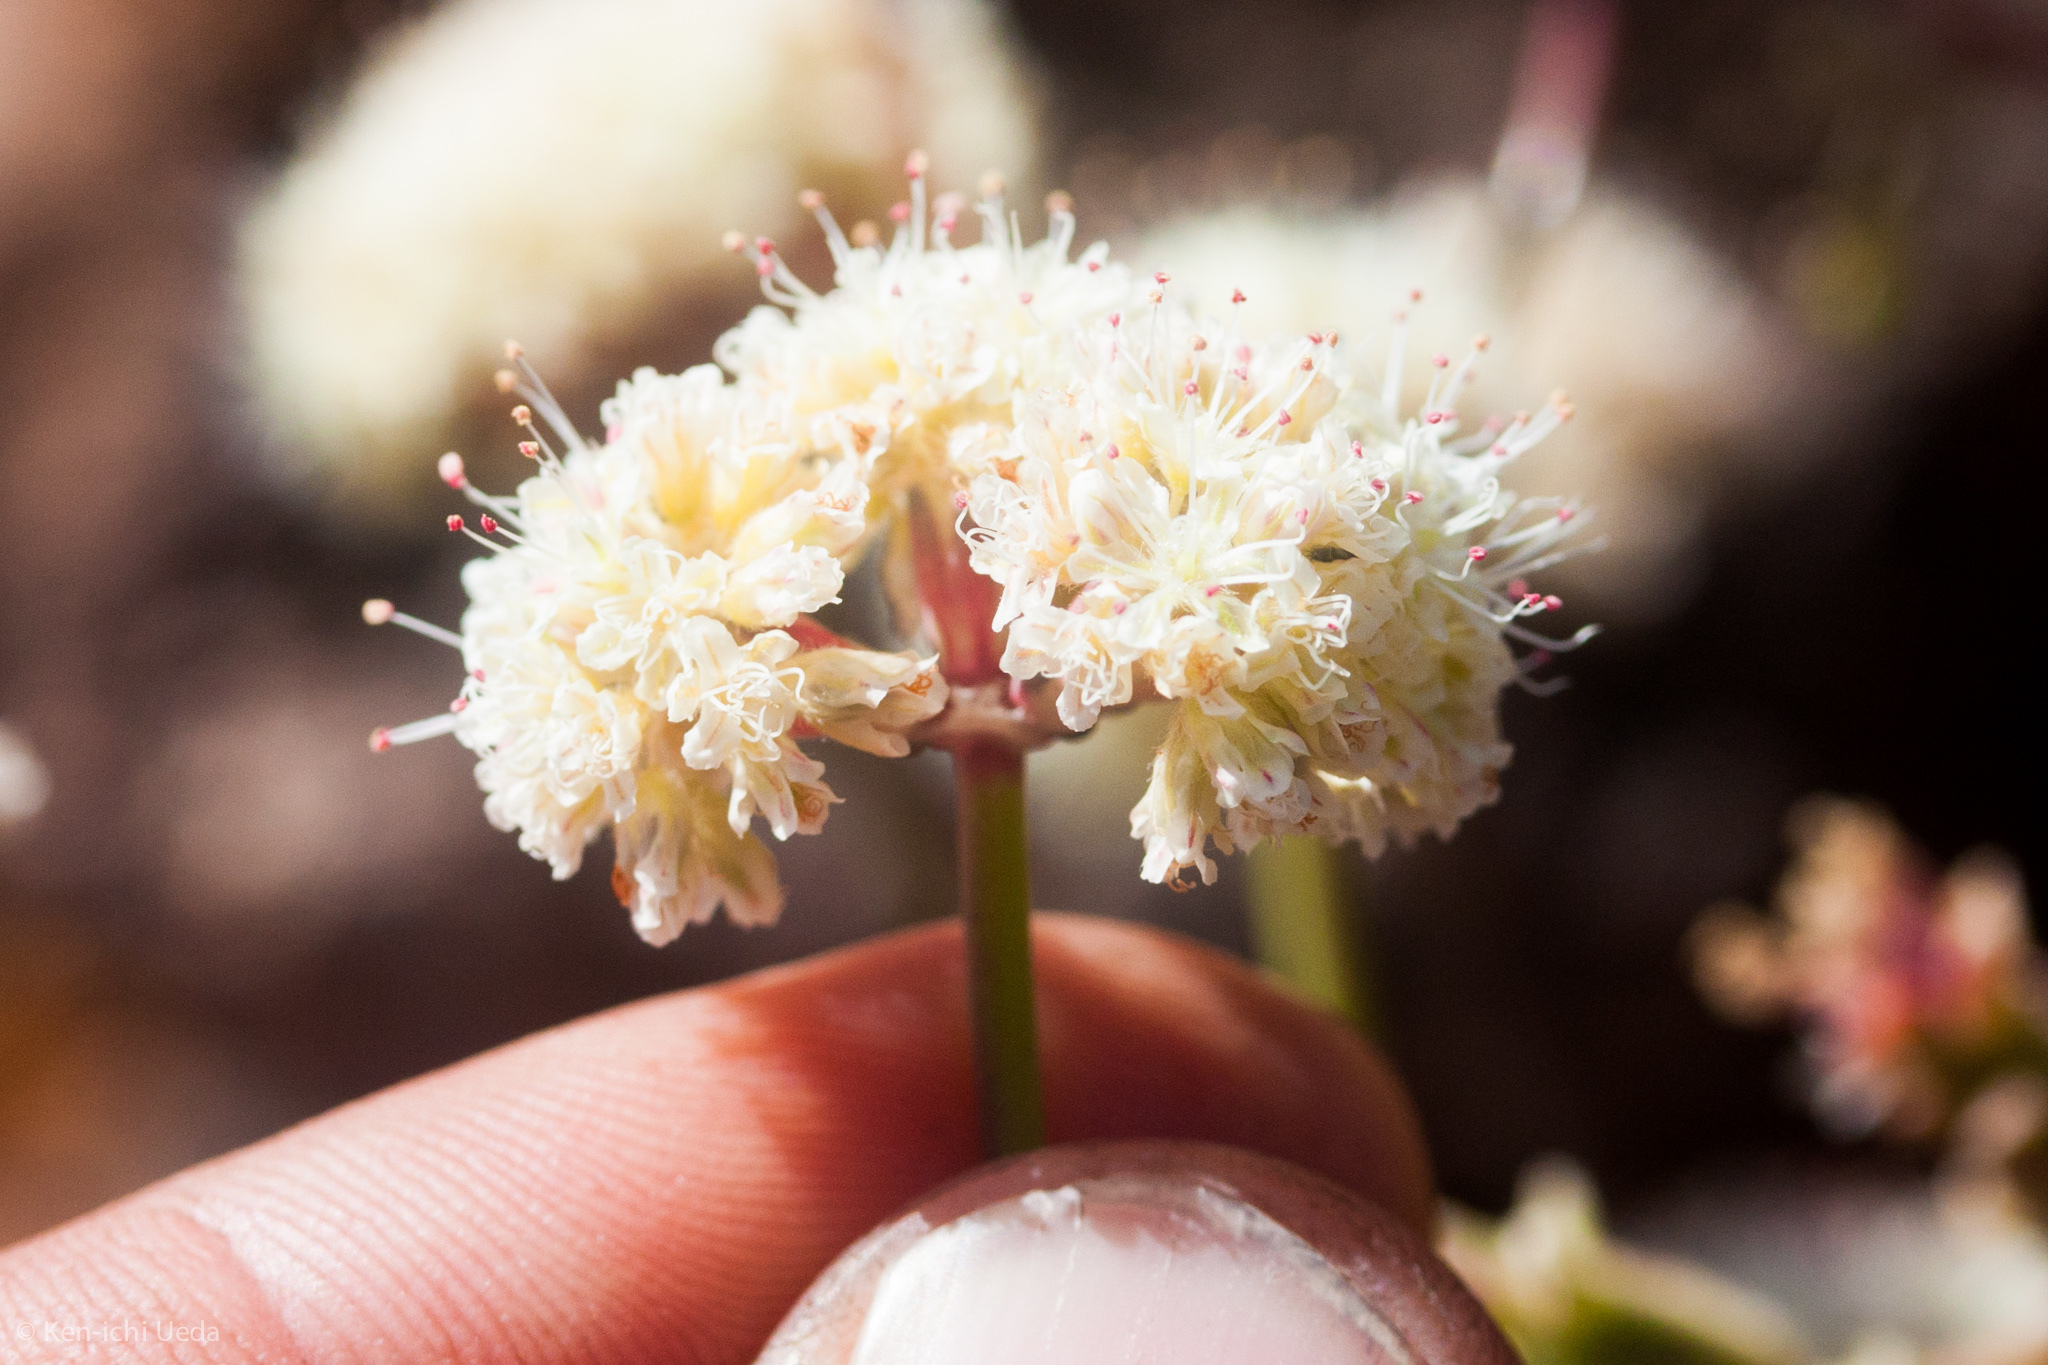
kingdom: Plantae
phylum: Tracheophyta
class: Magnoliopsida
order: Caryophyllales
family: Polygonaceae
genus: Eriogonum
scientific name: Eriogonum nudum
